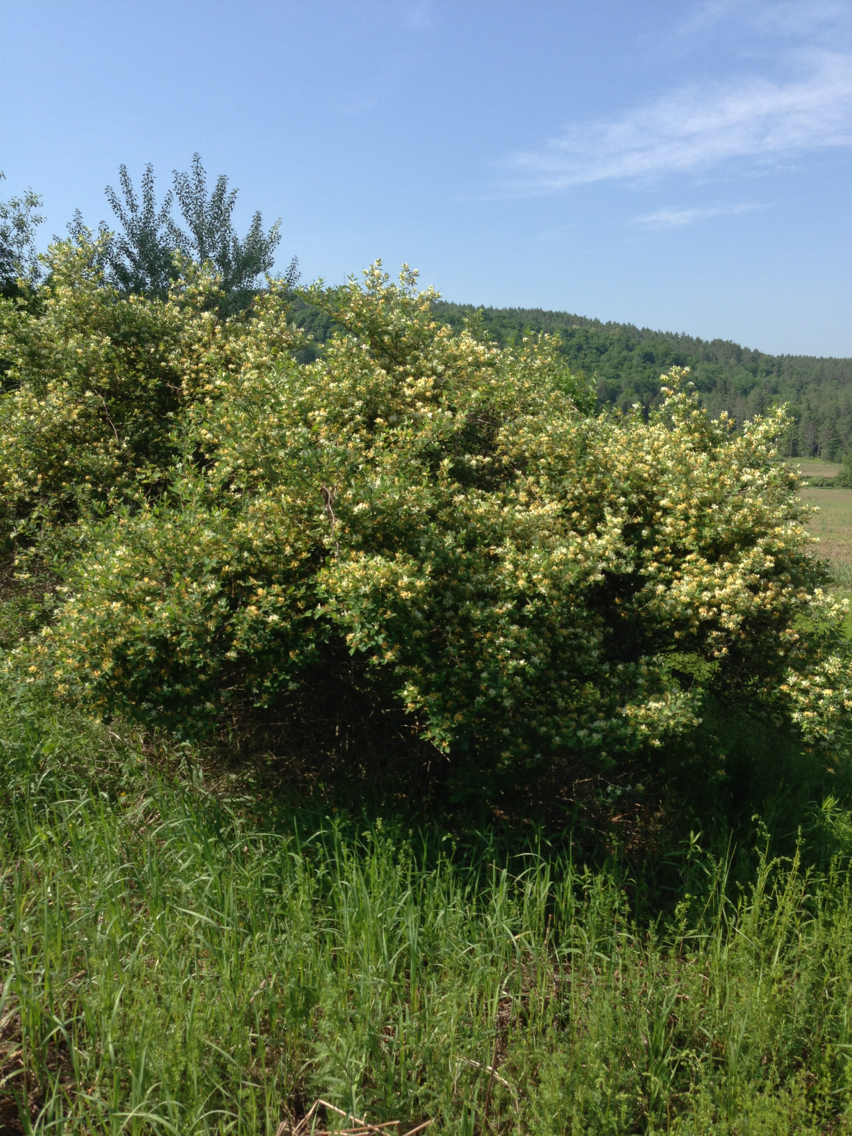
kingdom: Plantae
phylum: Tracheophyta
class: Magnoliopsida
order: Dipsacales
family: Caprifoliaceae
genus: Lonicera
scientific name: Lonicera
